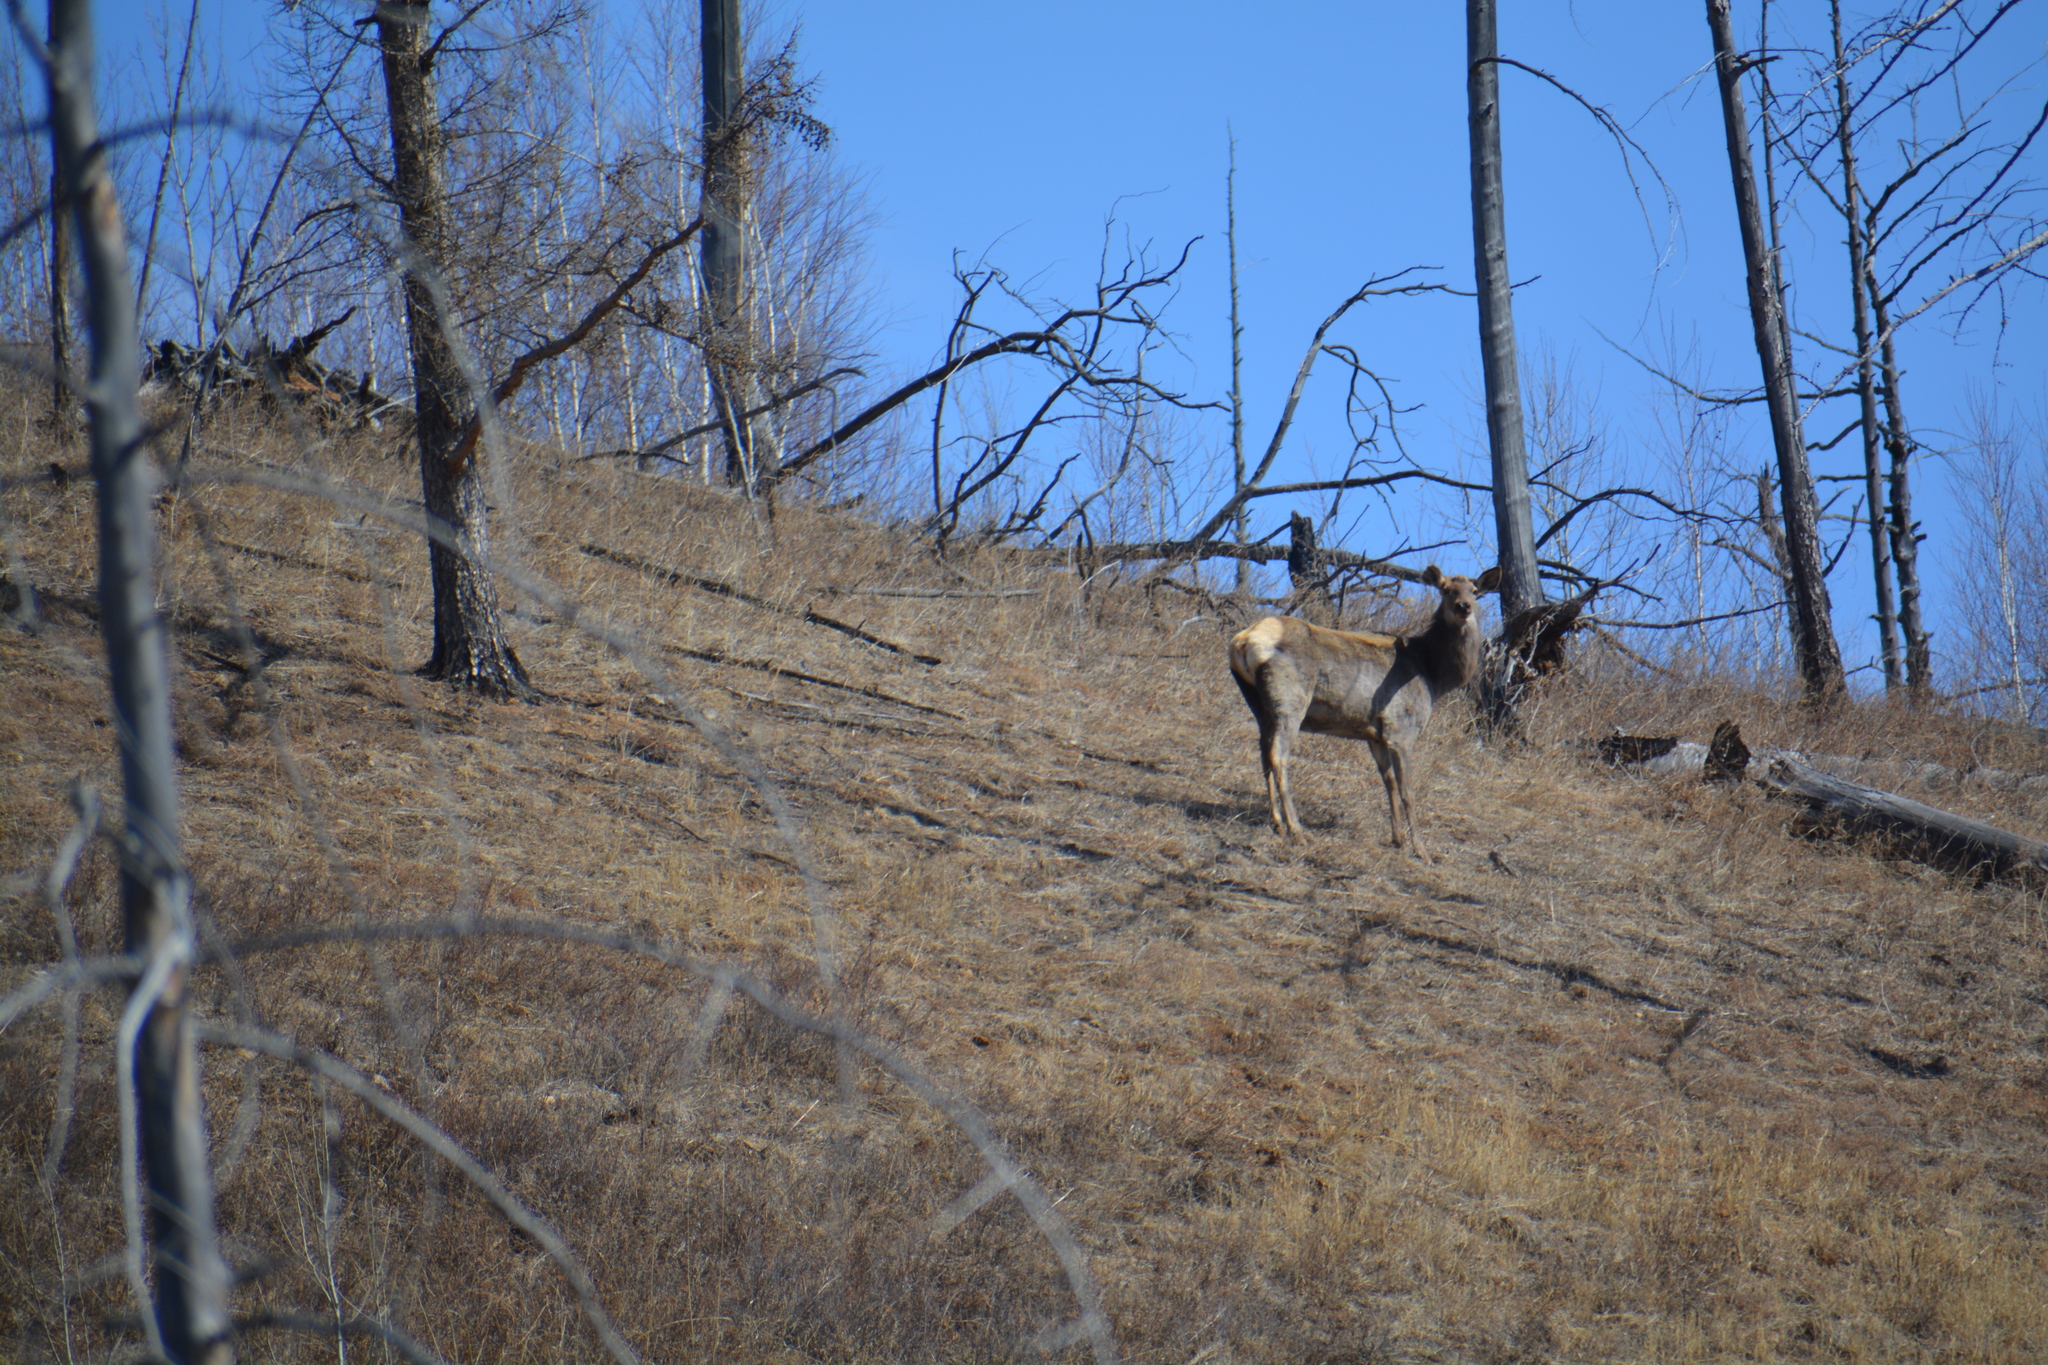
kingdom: Animalia
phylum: Chordata
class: Mammalia
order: Artiodactyla
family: Cervidae
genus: Cervus
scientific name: Cervus elaphus
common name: Red deer
